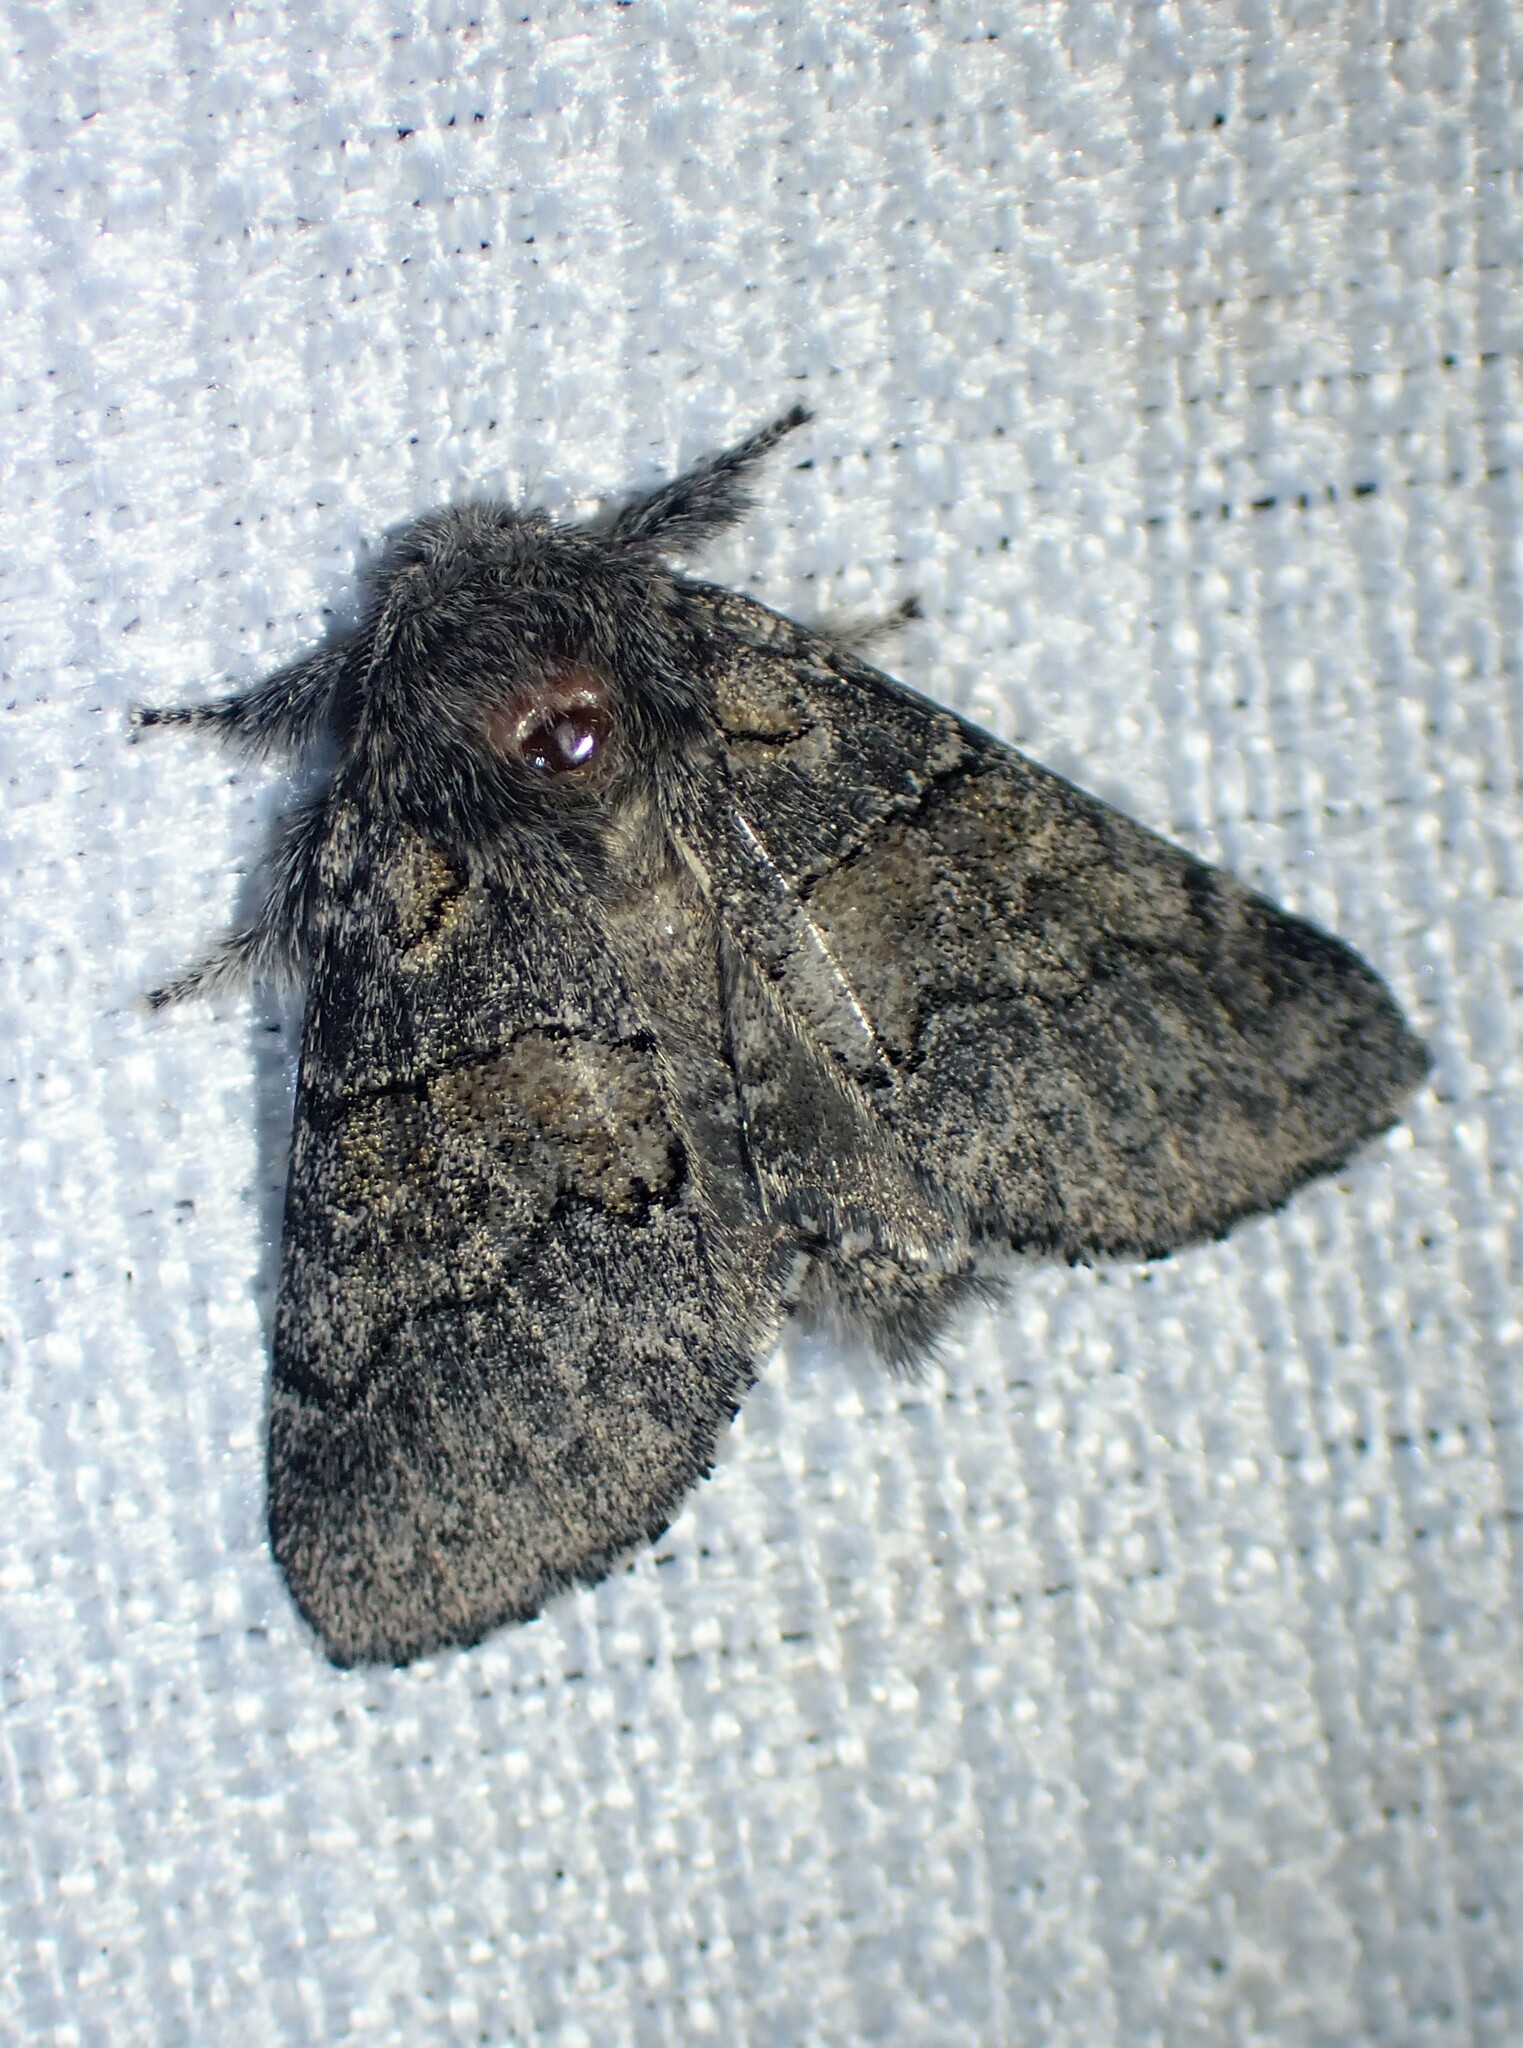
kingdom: Animalia
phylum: Arthropoda
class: Insecta
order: Lepidoptera
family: Notodontidae
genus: Gluphisia
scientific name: Gluphisia septentrionis
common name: Common gluphisia
